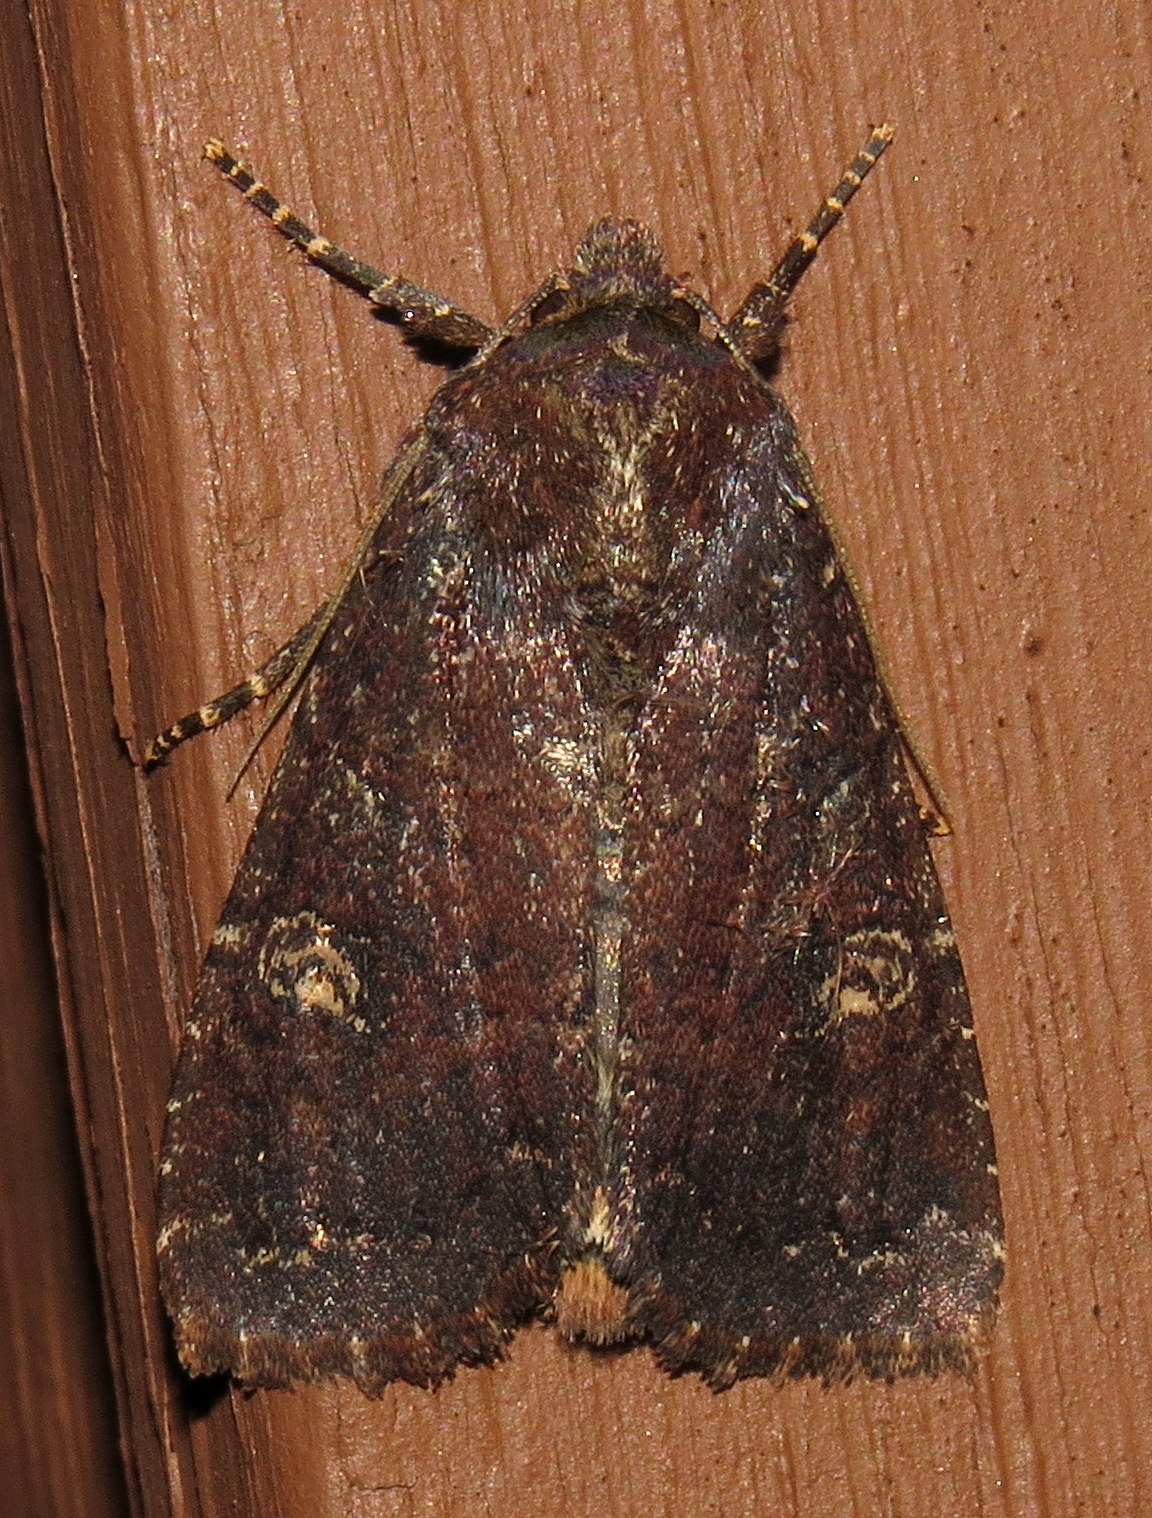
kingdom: Animalia
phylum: Arthropoda
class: Insecta
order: Lepidoptera
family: Noctuidae
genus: Apamea
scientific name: Apamea dubitans
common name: Doubtful apamea moth
